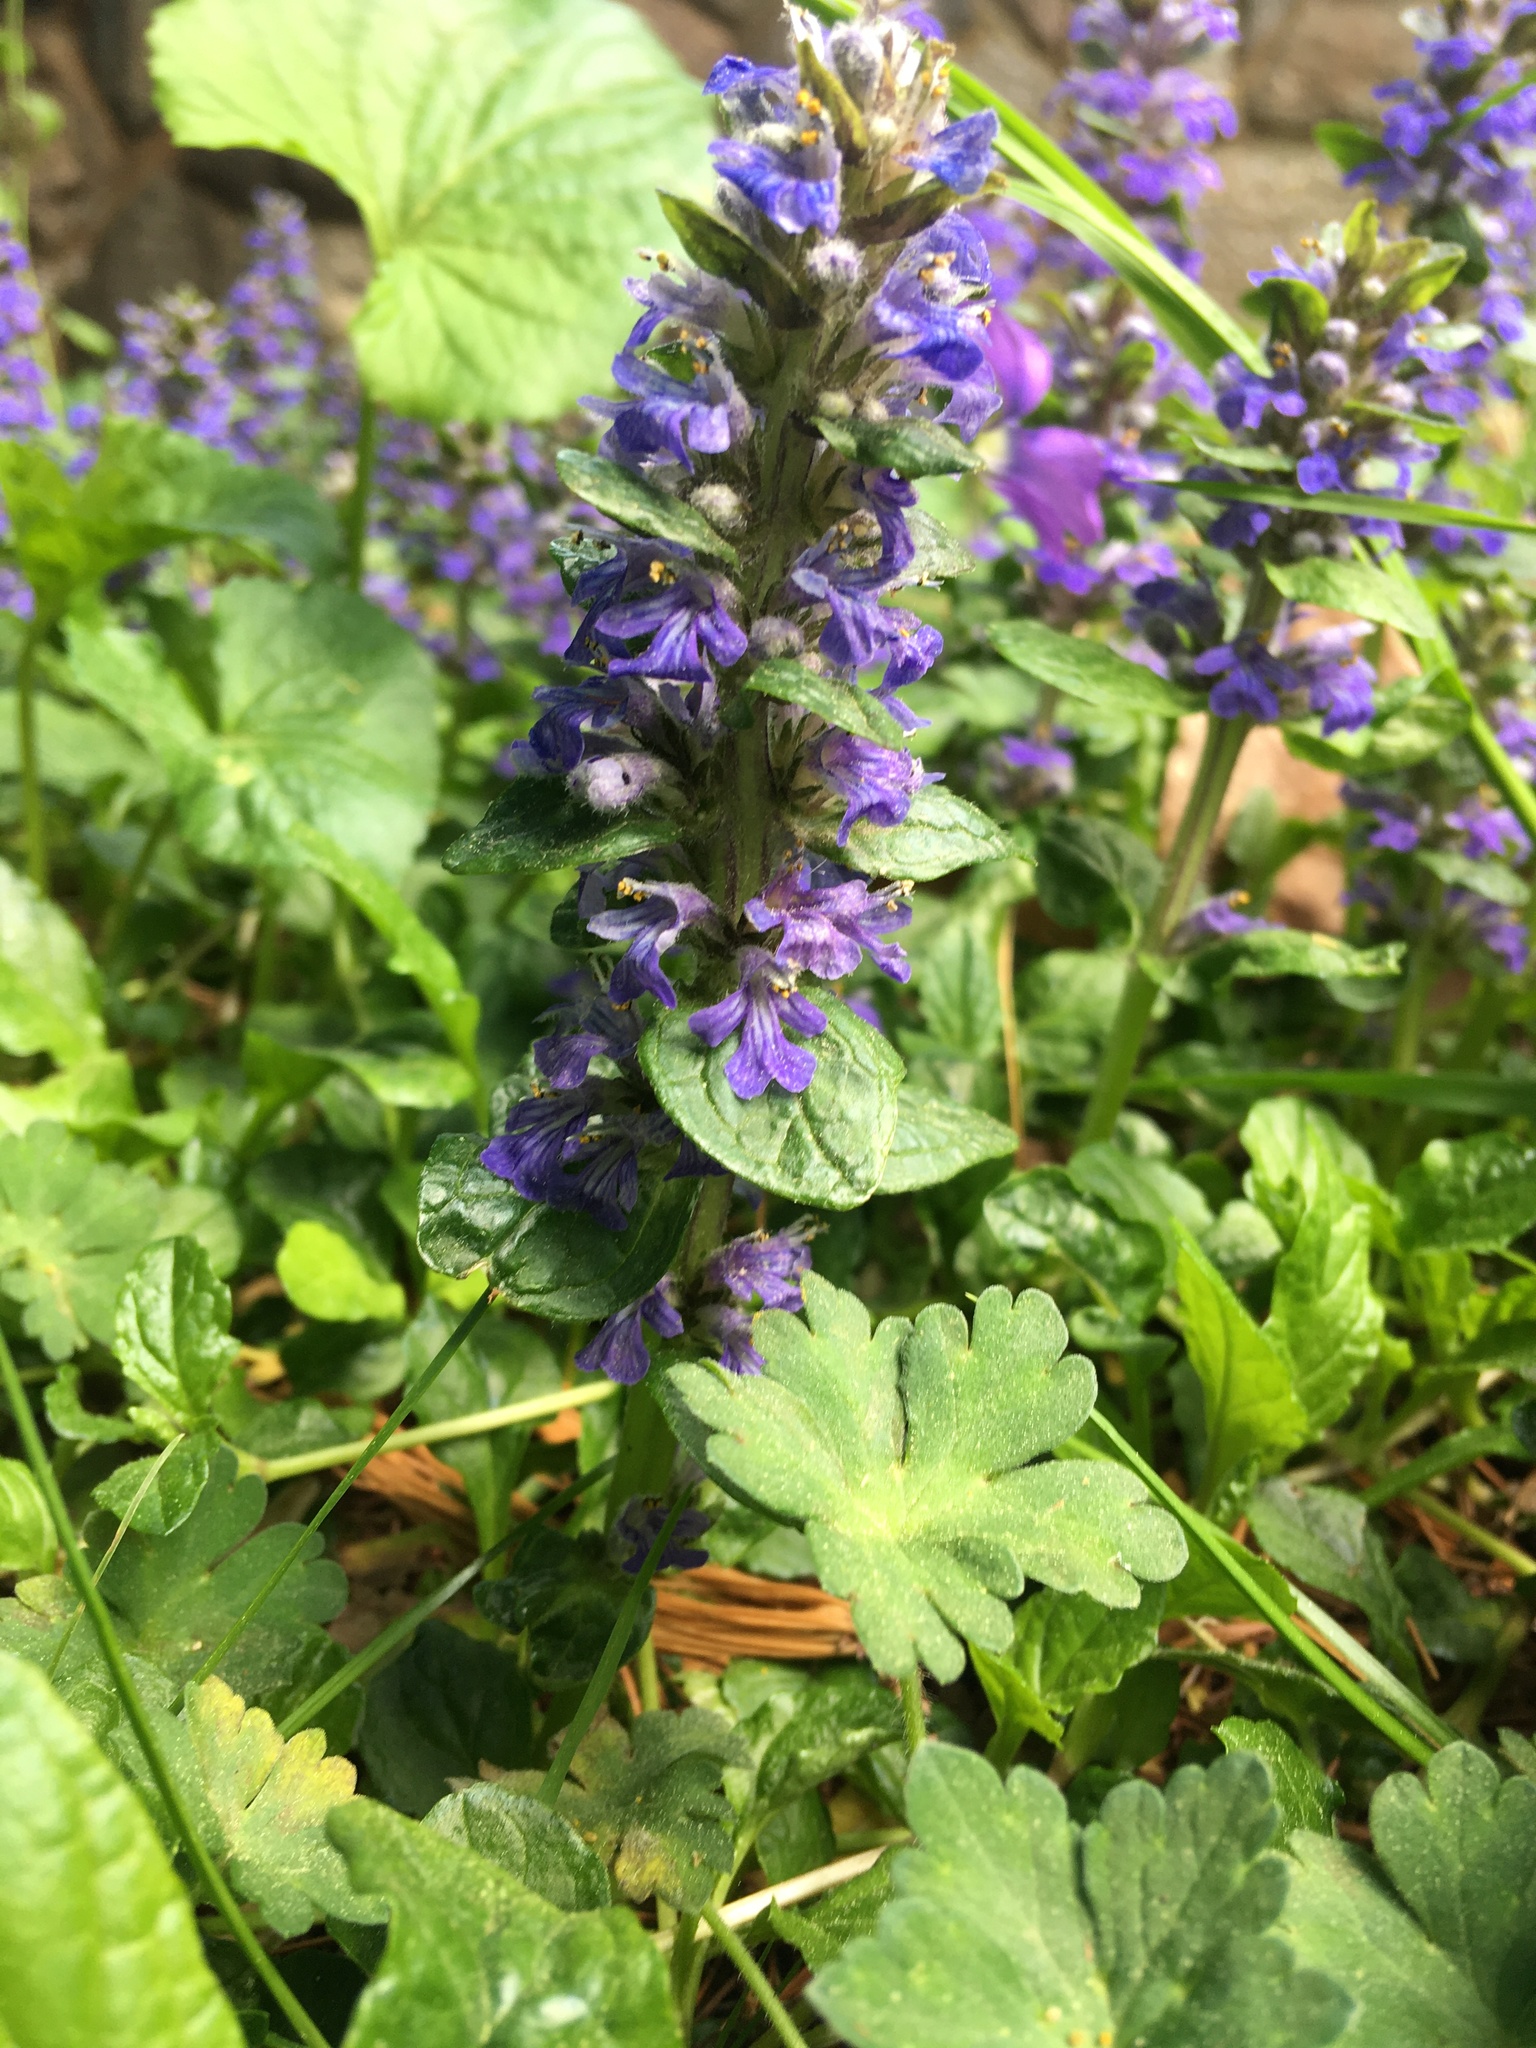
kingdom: Plantae
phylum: Tracheophyta
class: Magnoliopsida
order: Lamiales
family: Lamiaceae
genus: Ajuga
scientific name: Ajuga reptans
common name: Bugle
